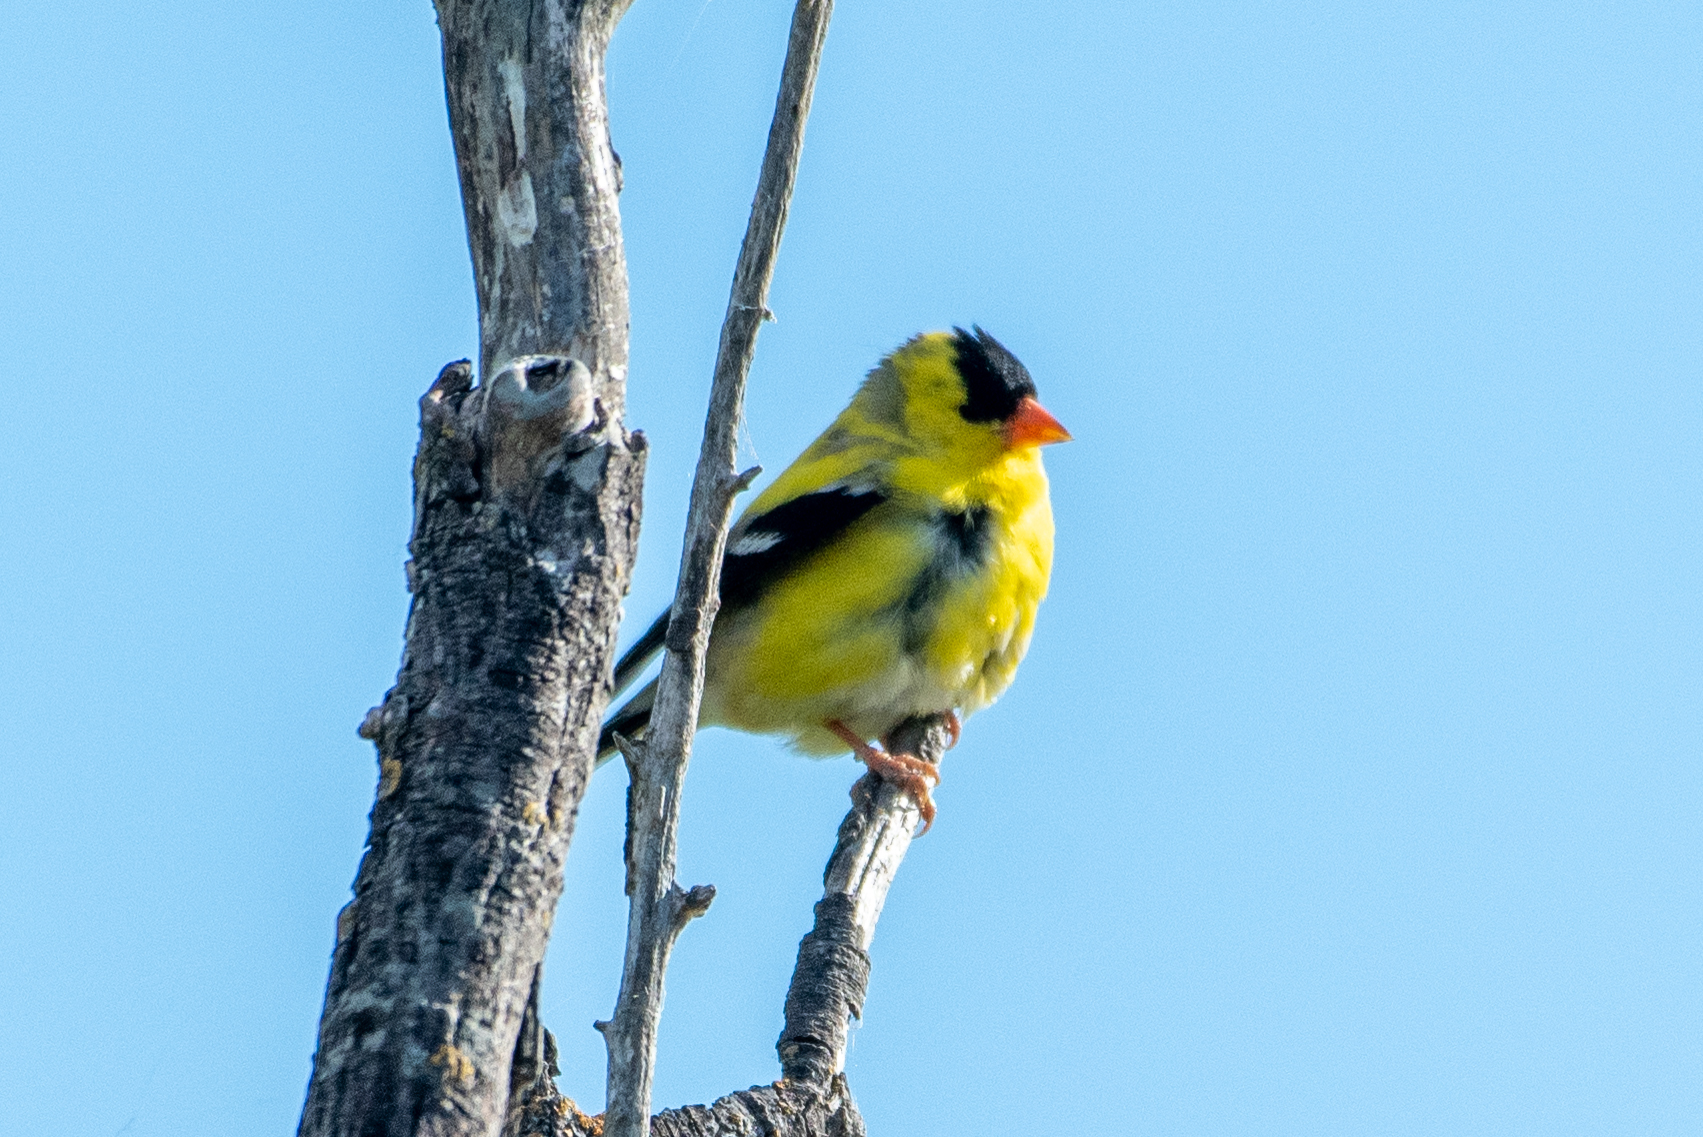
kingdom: Animalia
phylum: Chordata
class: Aves
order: Passeriformes
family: Fringillidae
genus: Spinus
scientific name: Spinus tristis
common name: American goldfinch
